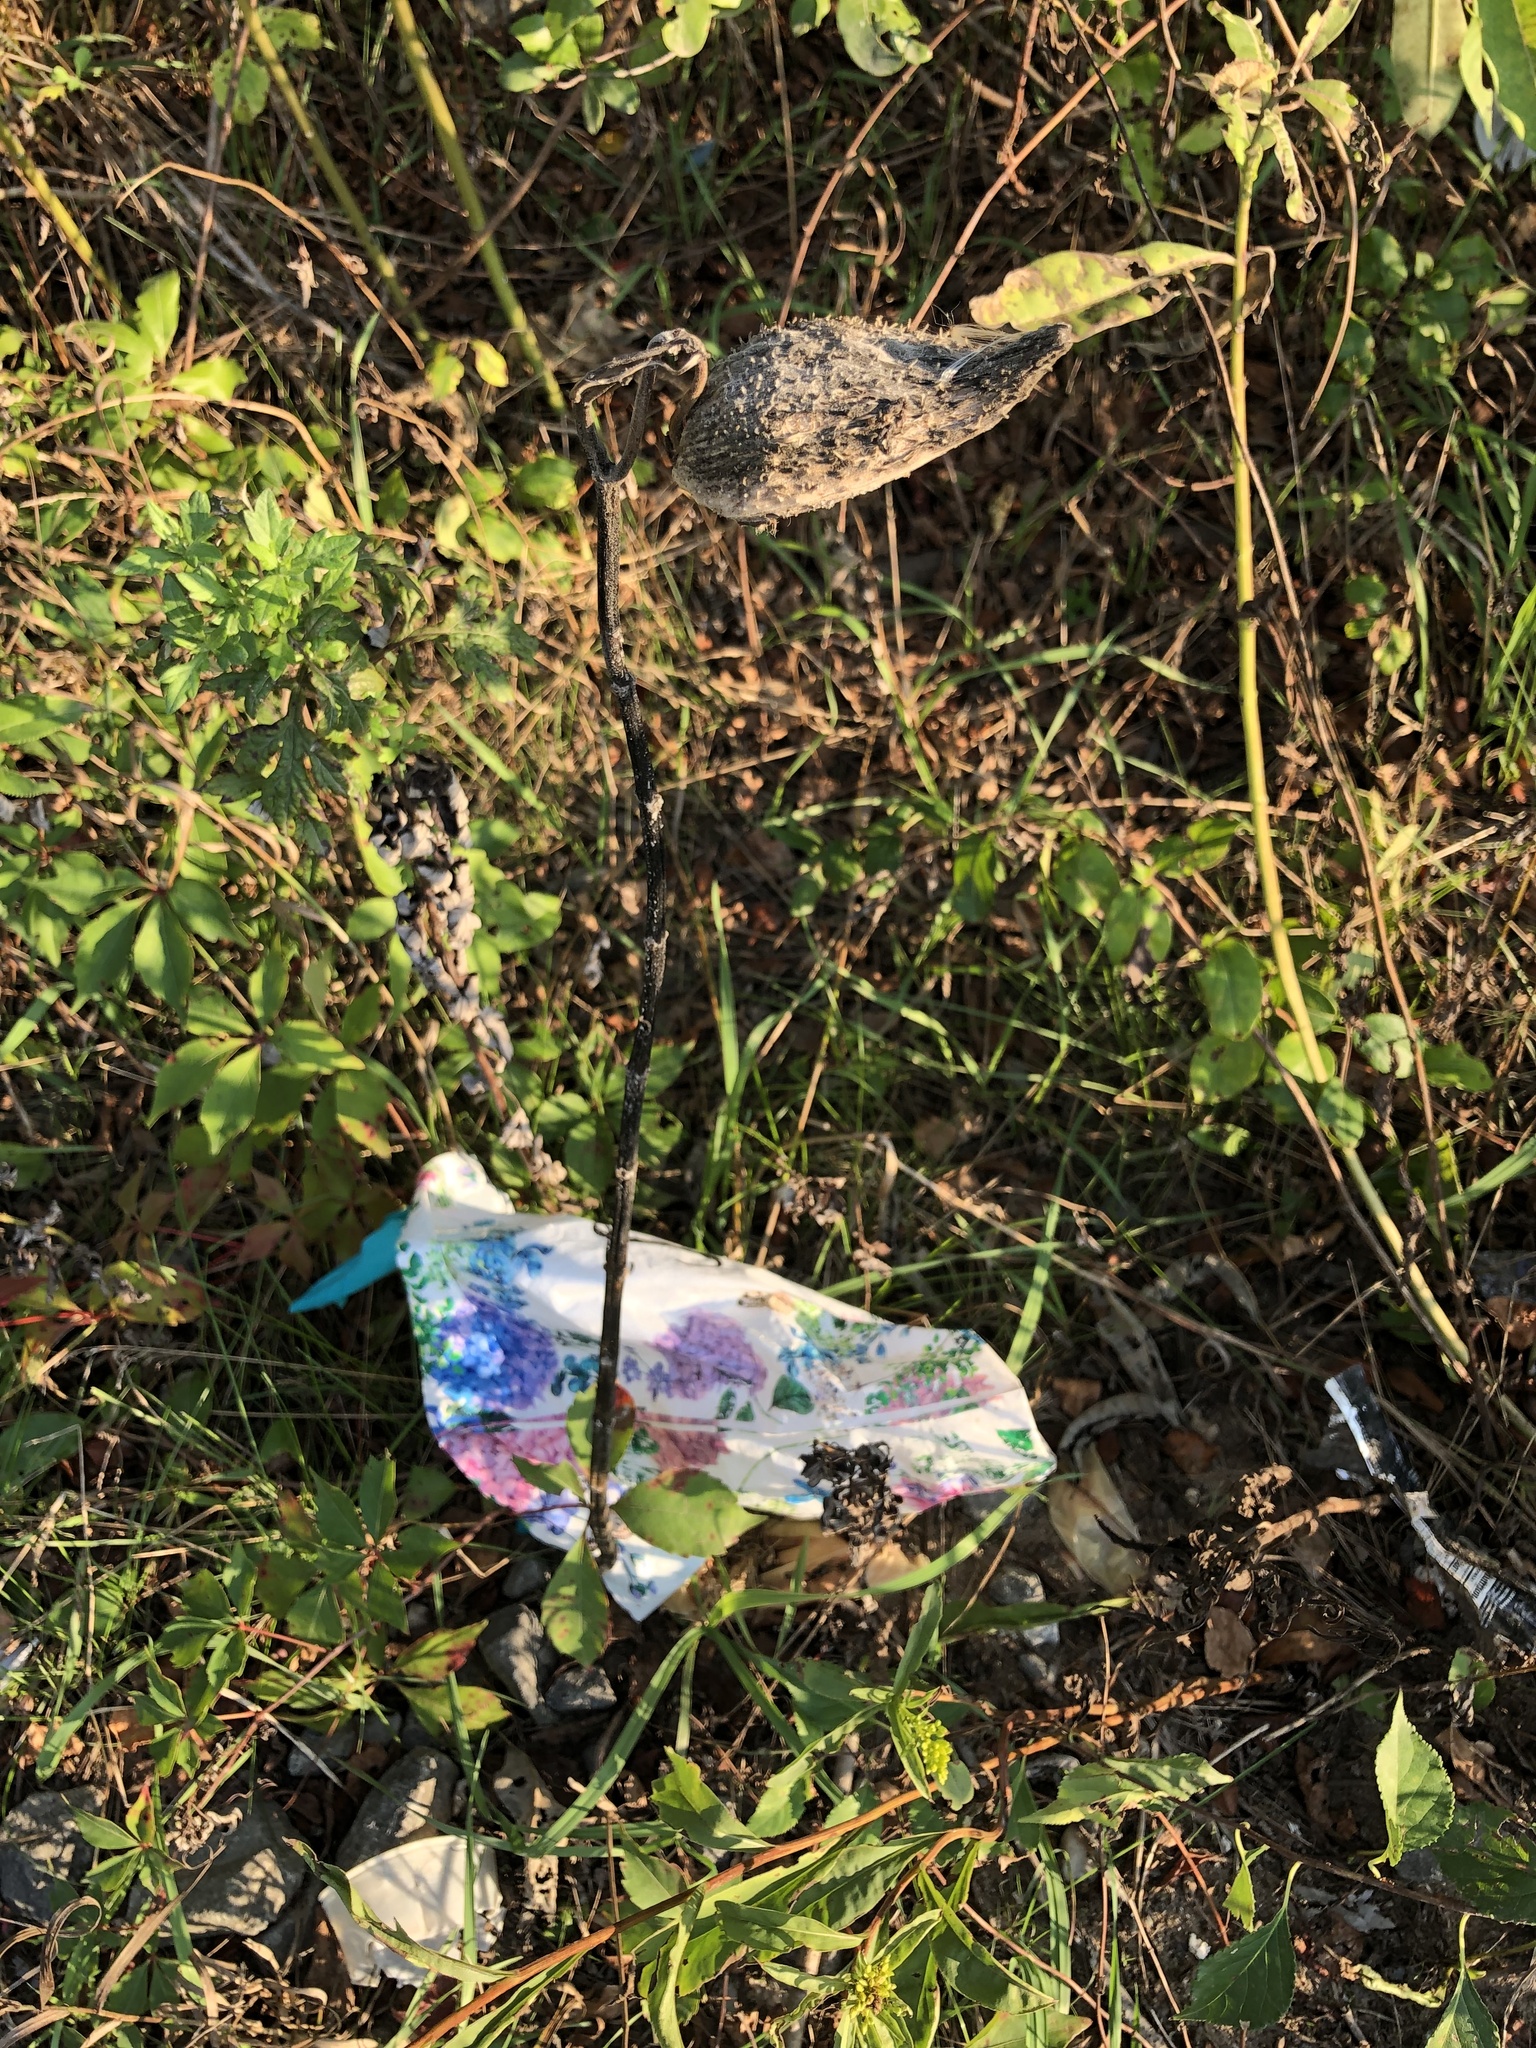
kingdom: Plantae
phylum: Tracheophyta
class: Magnoliopsida
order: Gentianales
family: Apocynaceae
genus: Asclepias
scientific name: Asclepias syriaca
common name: Common milkweed
